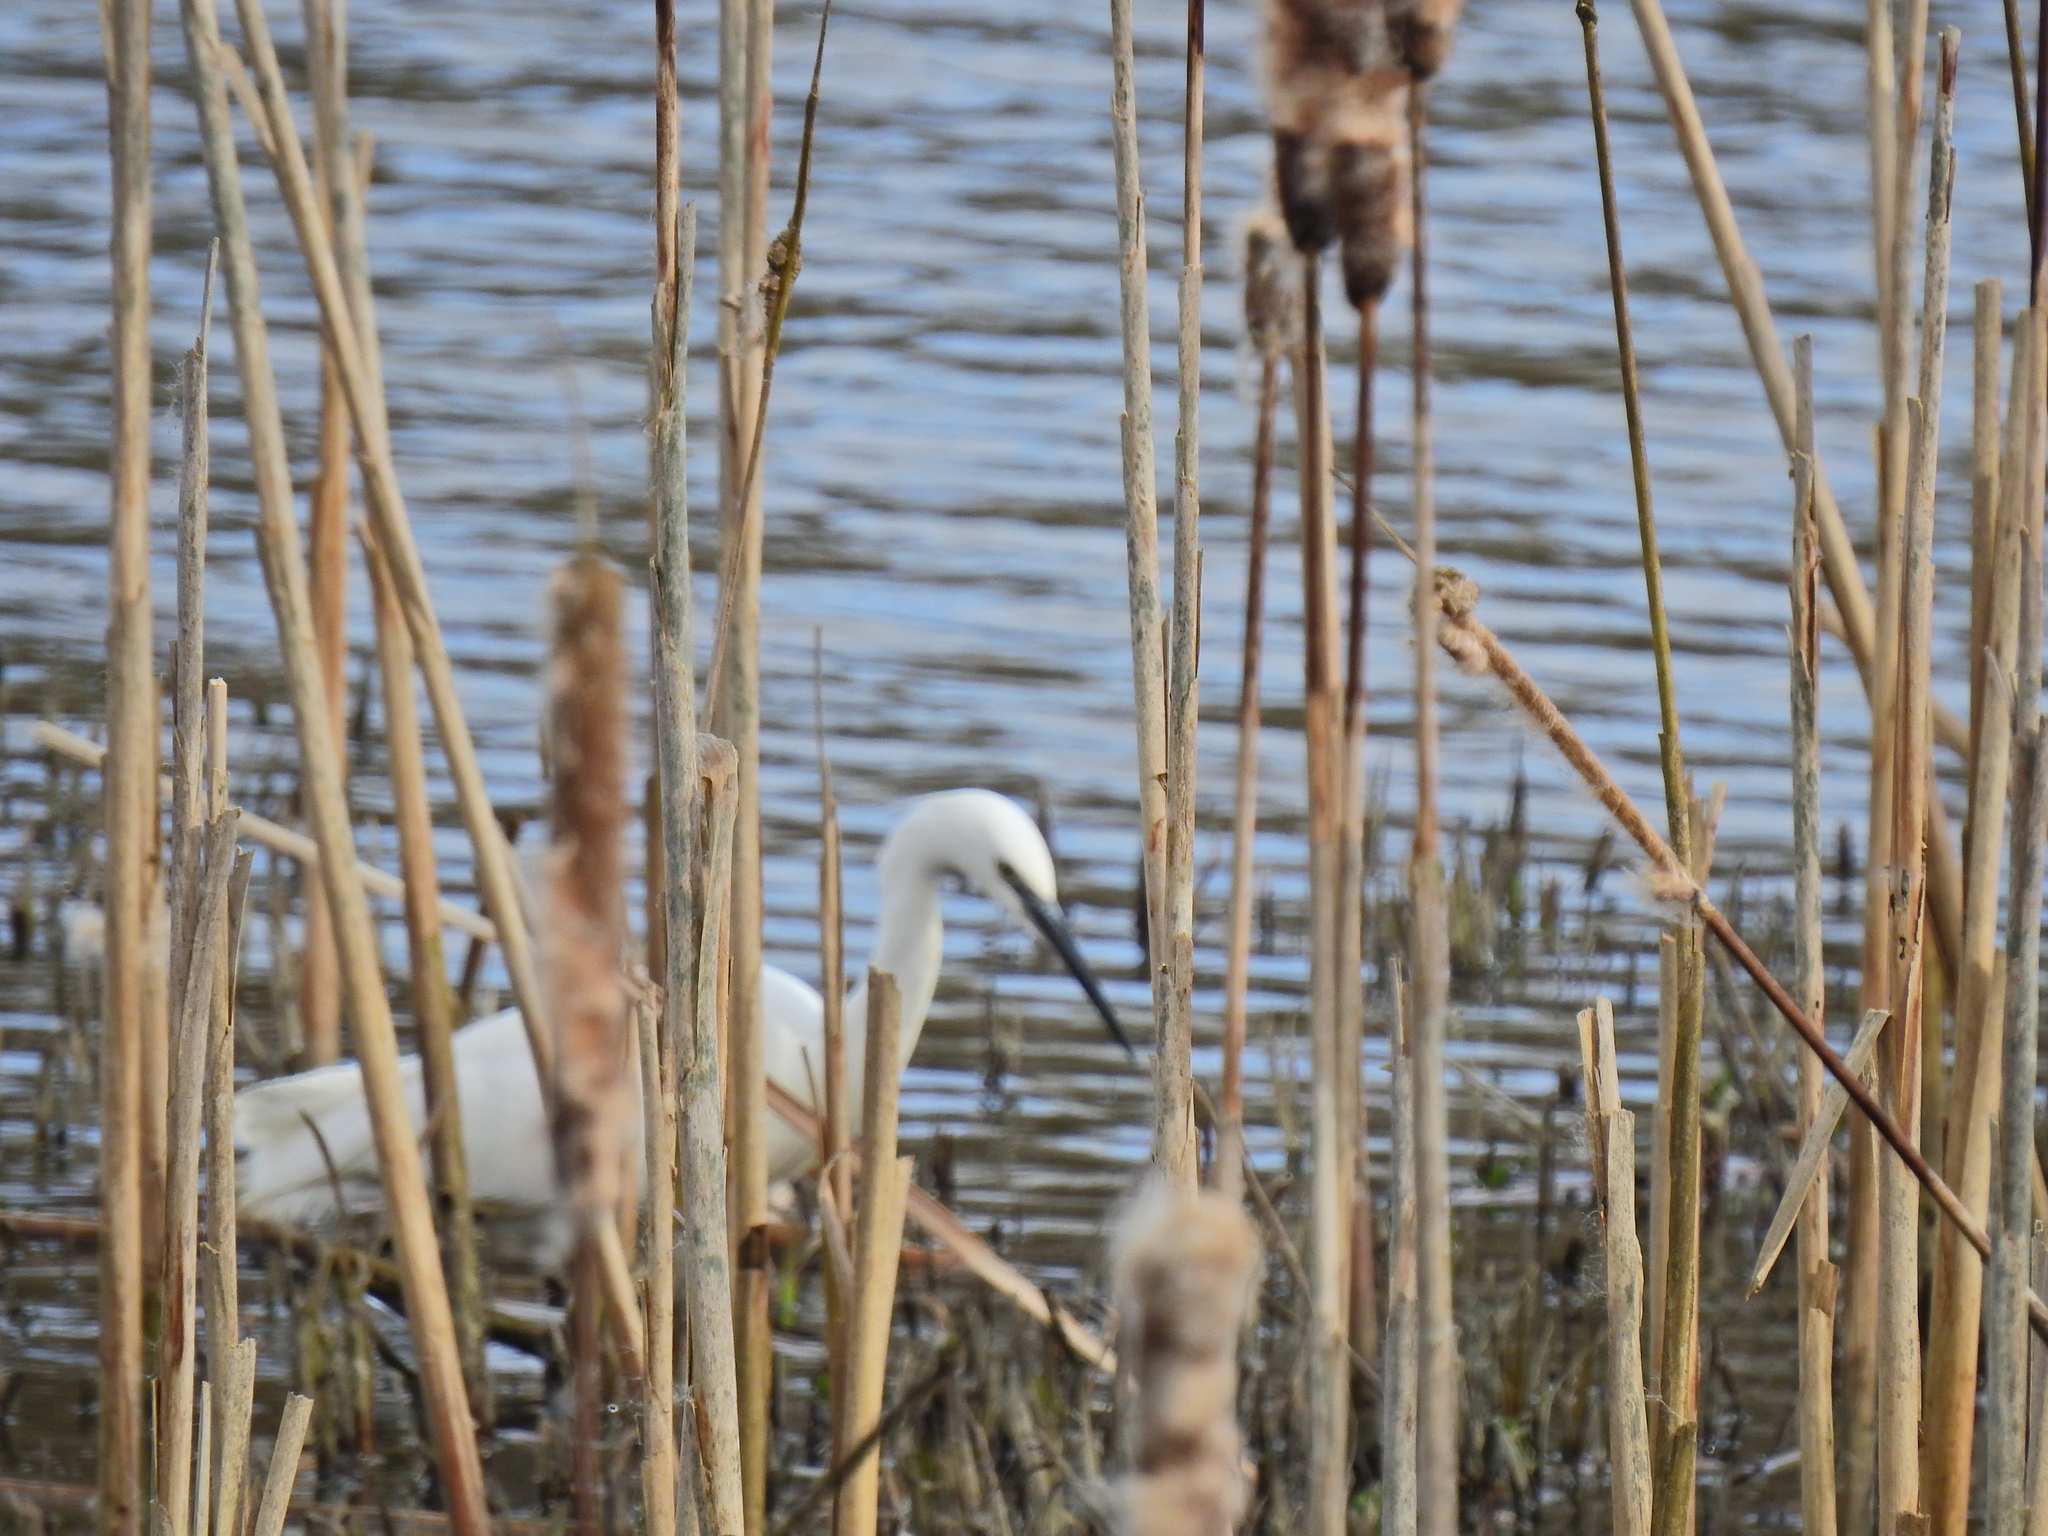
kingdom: Animalia
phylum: Chordata
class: Aves
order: Pelecaniformes
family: Ardeidae
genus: Egretta
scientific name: Egretta garzetta
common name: Little egret
